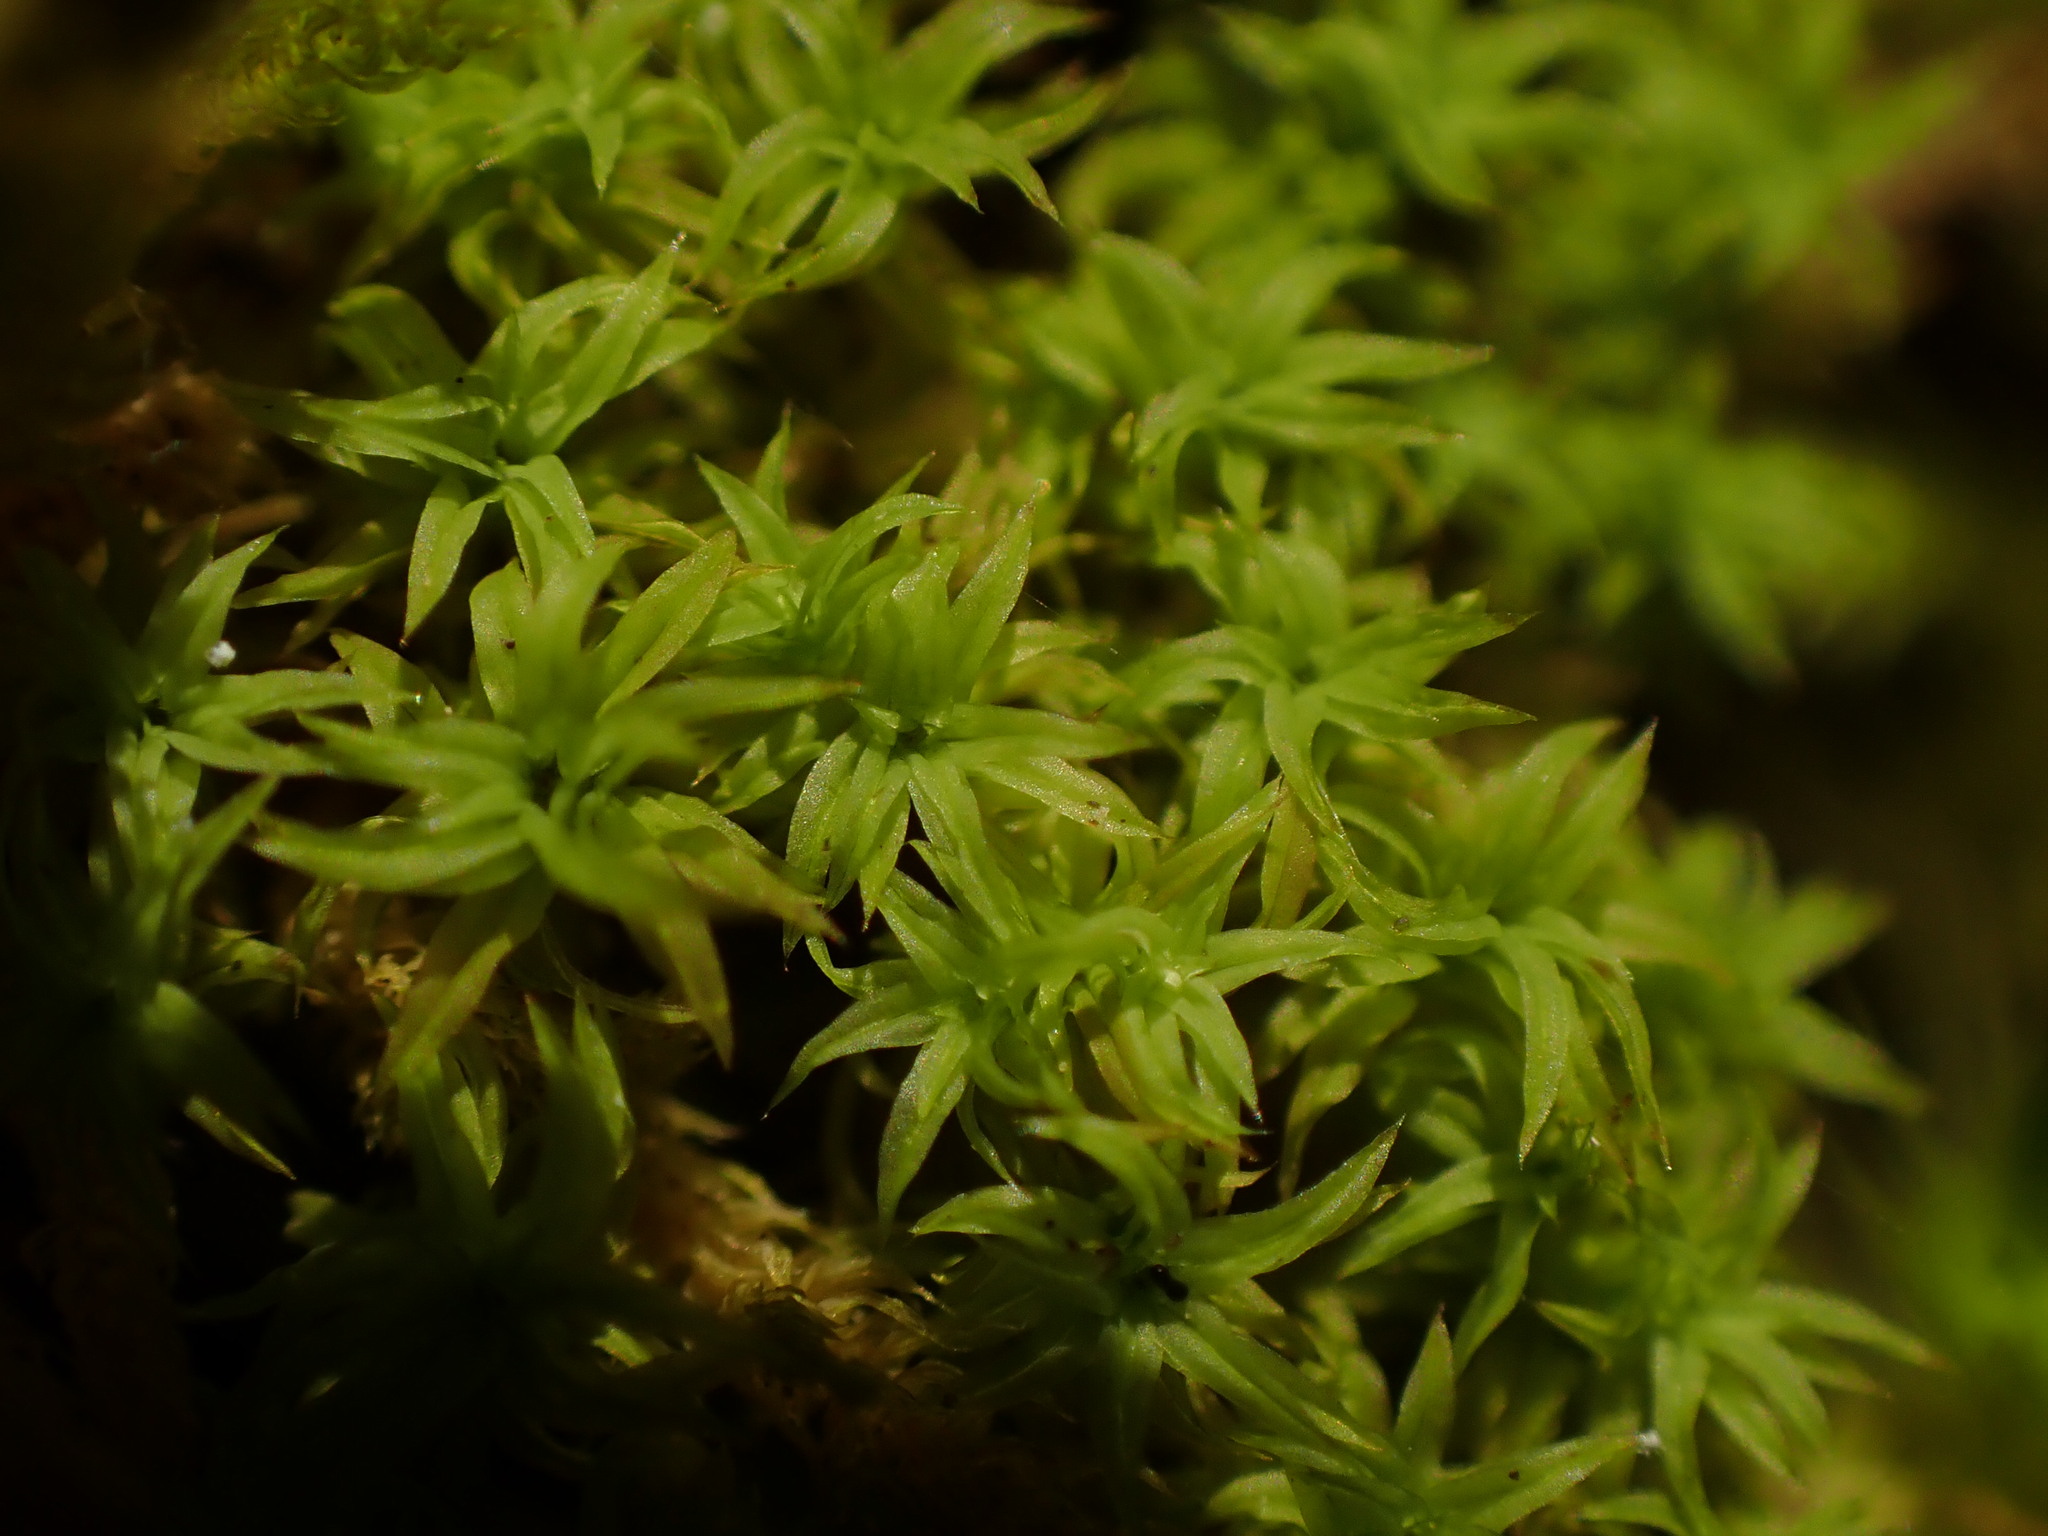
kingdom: Plantae
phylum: Bryophyta
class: Bryopsida
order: Orthotrichales
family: Orthotrichaceae
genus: Zygodon
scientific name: Zygodon rupestris
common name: Park yoke moss
